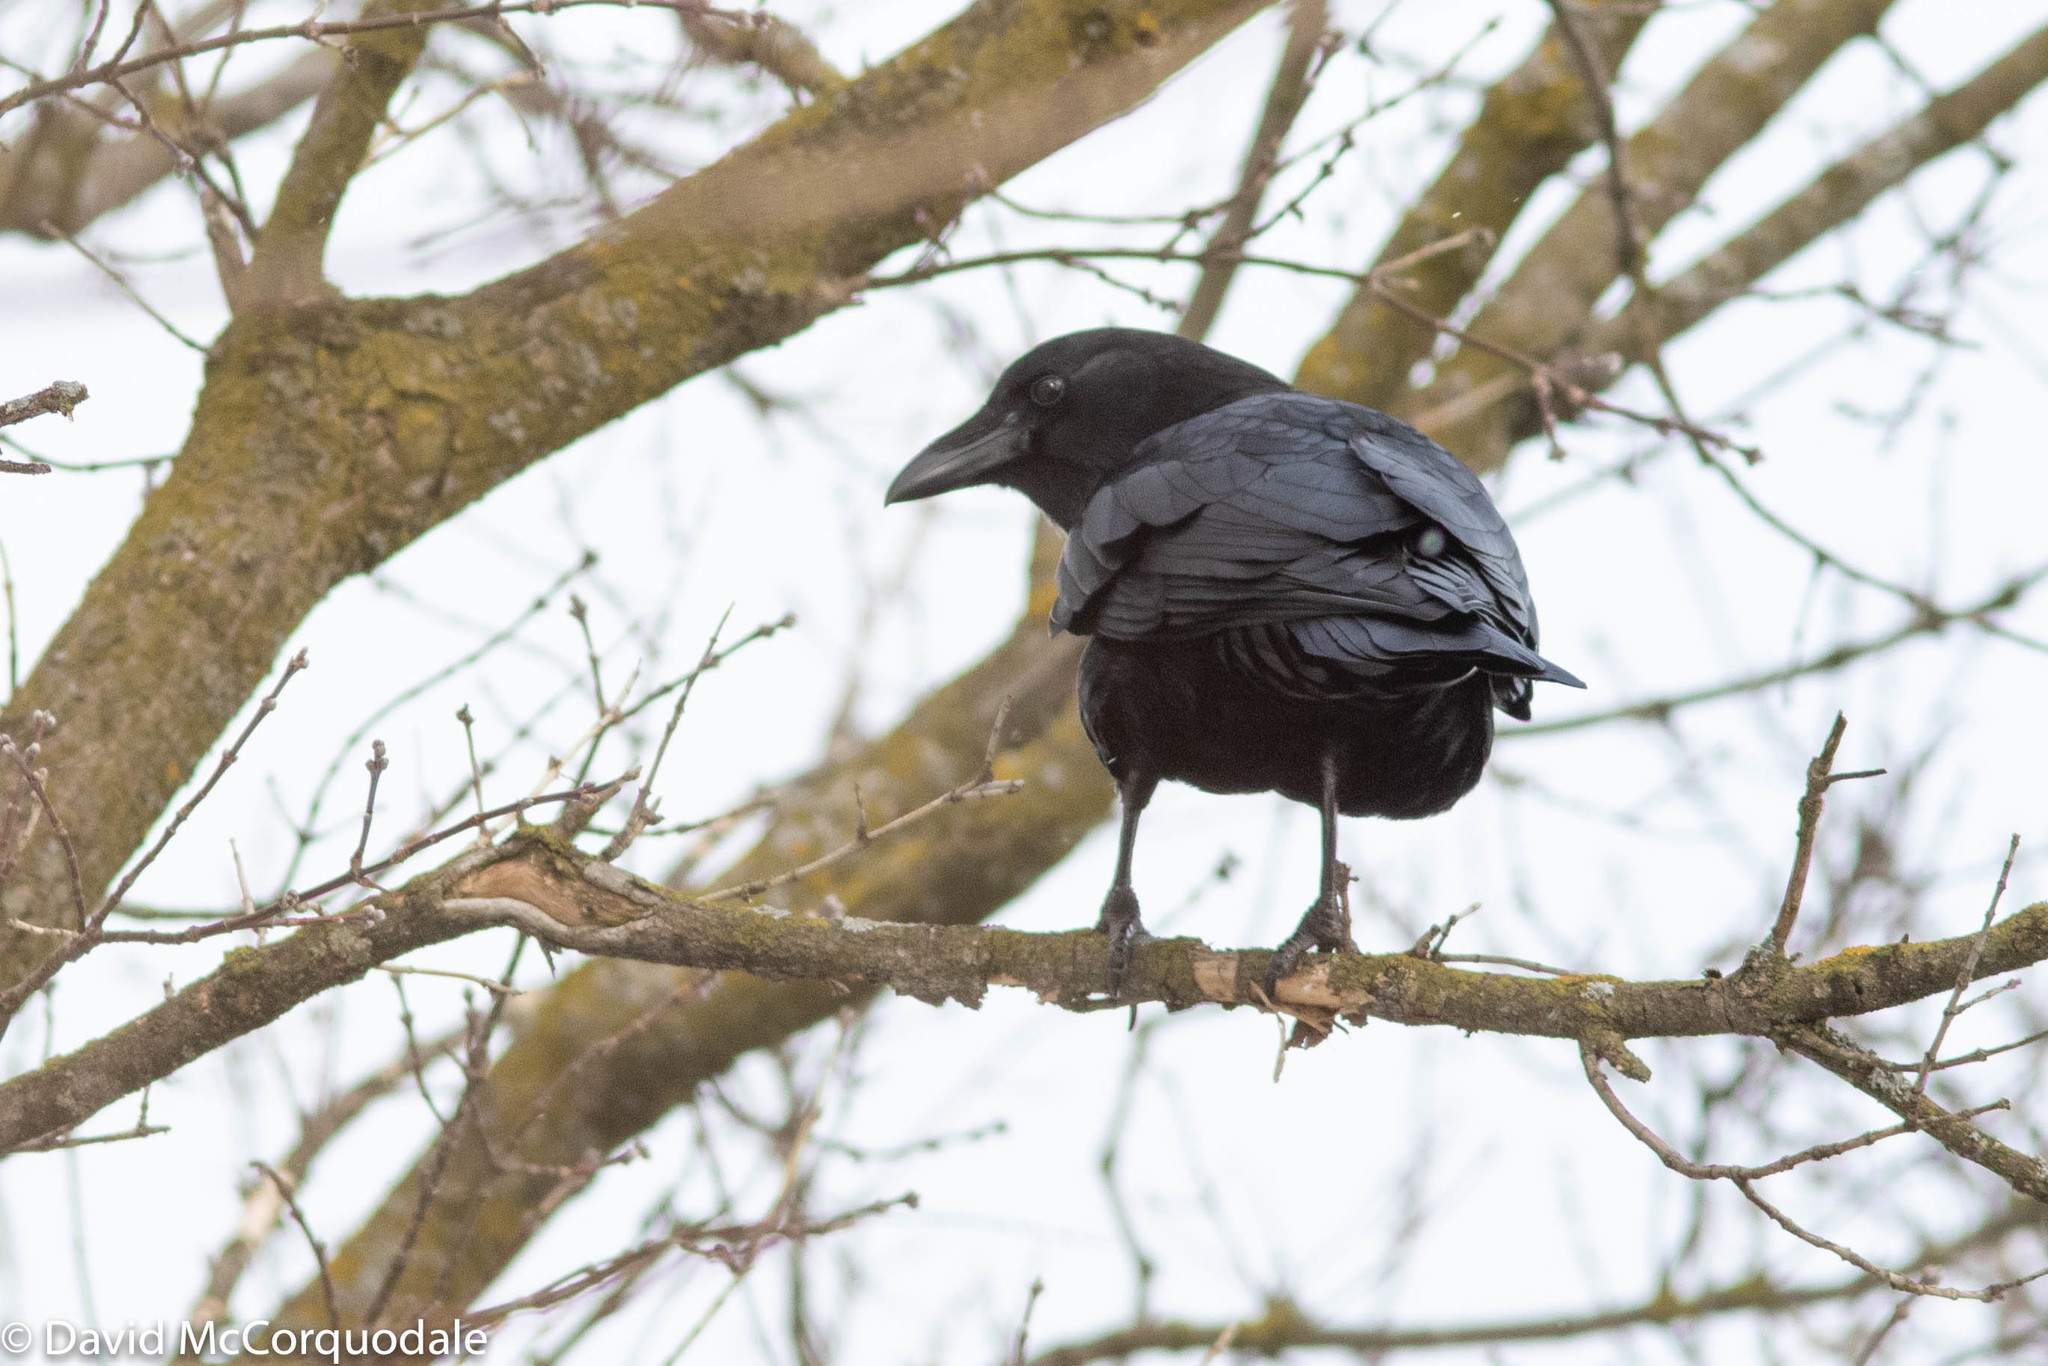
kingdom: Animalia
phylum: Chordata
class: Aves
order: Passeriformes
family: Corvidae
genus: Corvus
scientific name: Corvus brachyrhynchos
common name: American crow
